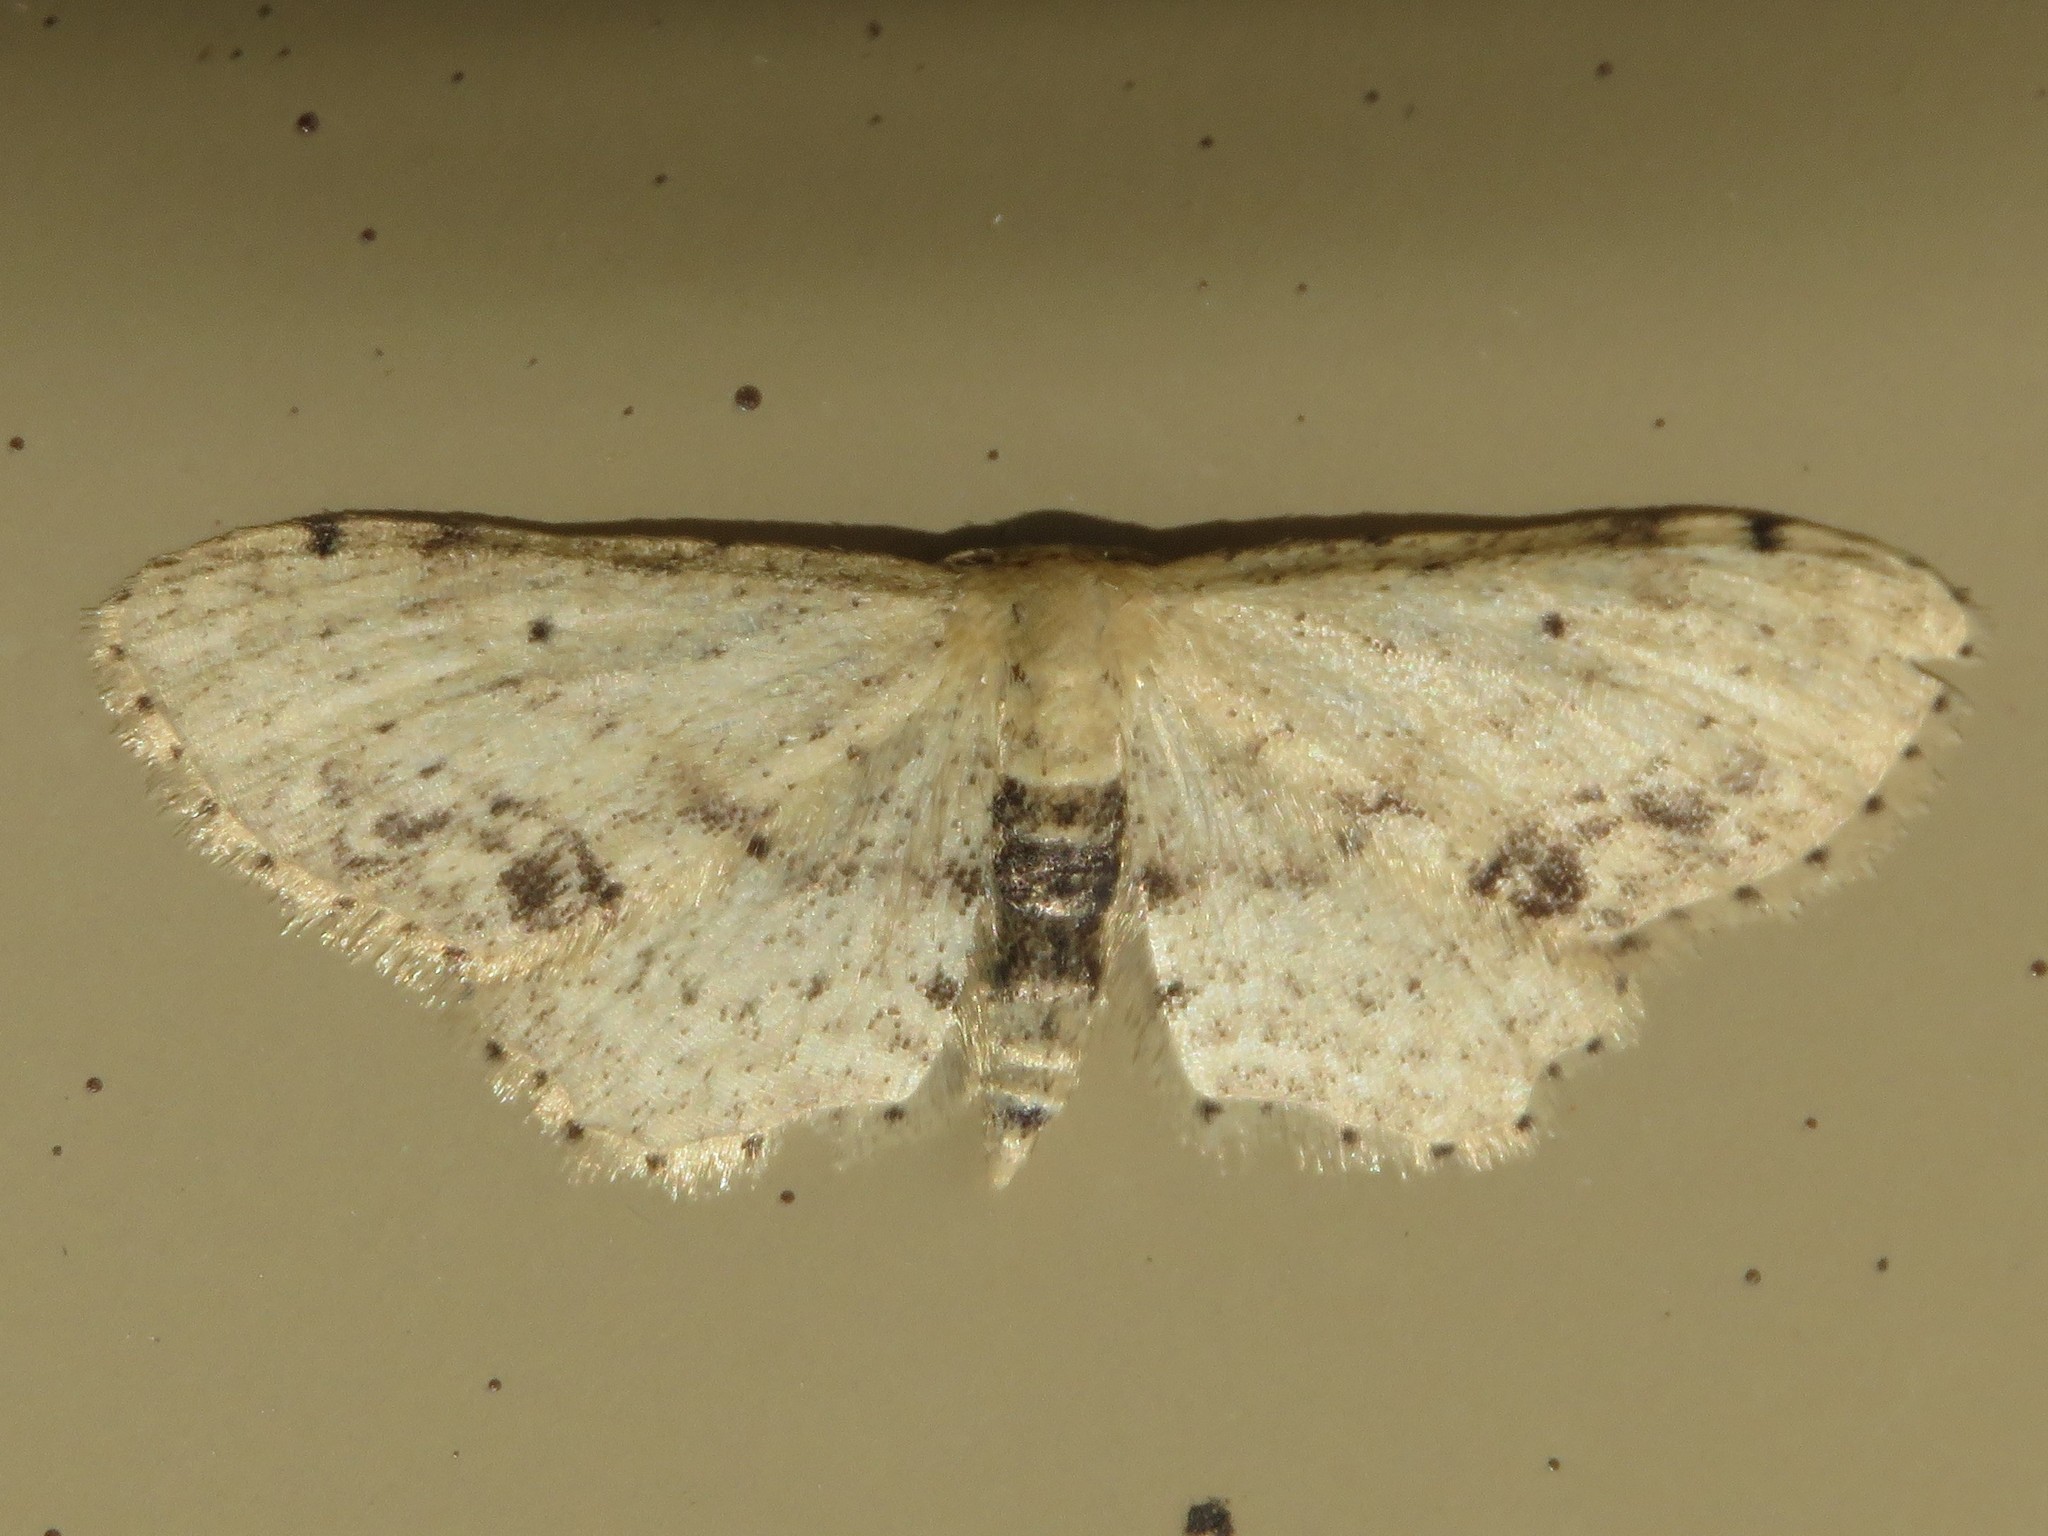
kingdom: Animalia
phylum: Arthropoda
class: Insecta
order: Lepidoptera
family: Geometridae
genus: Idaea
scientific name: Idaea dimidiata
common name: Single-dotted wave
